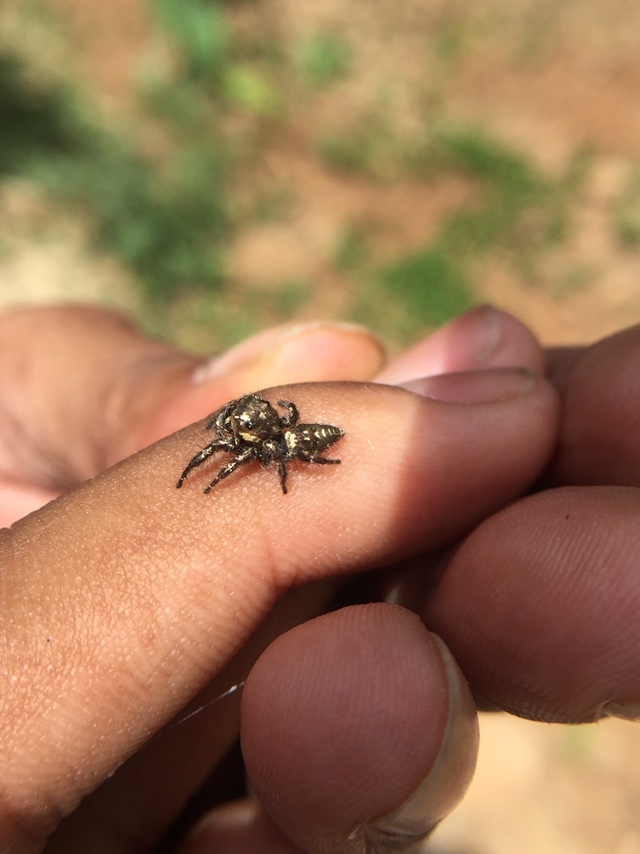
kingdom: Animalia
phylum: Arthropoda
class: Arachnida
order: Araneae
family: Salticidae
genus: Hyllus
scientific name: Hyllus semicupreus
